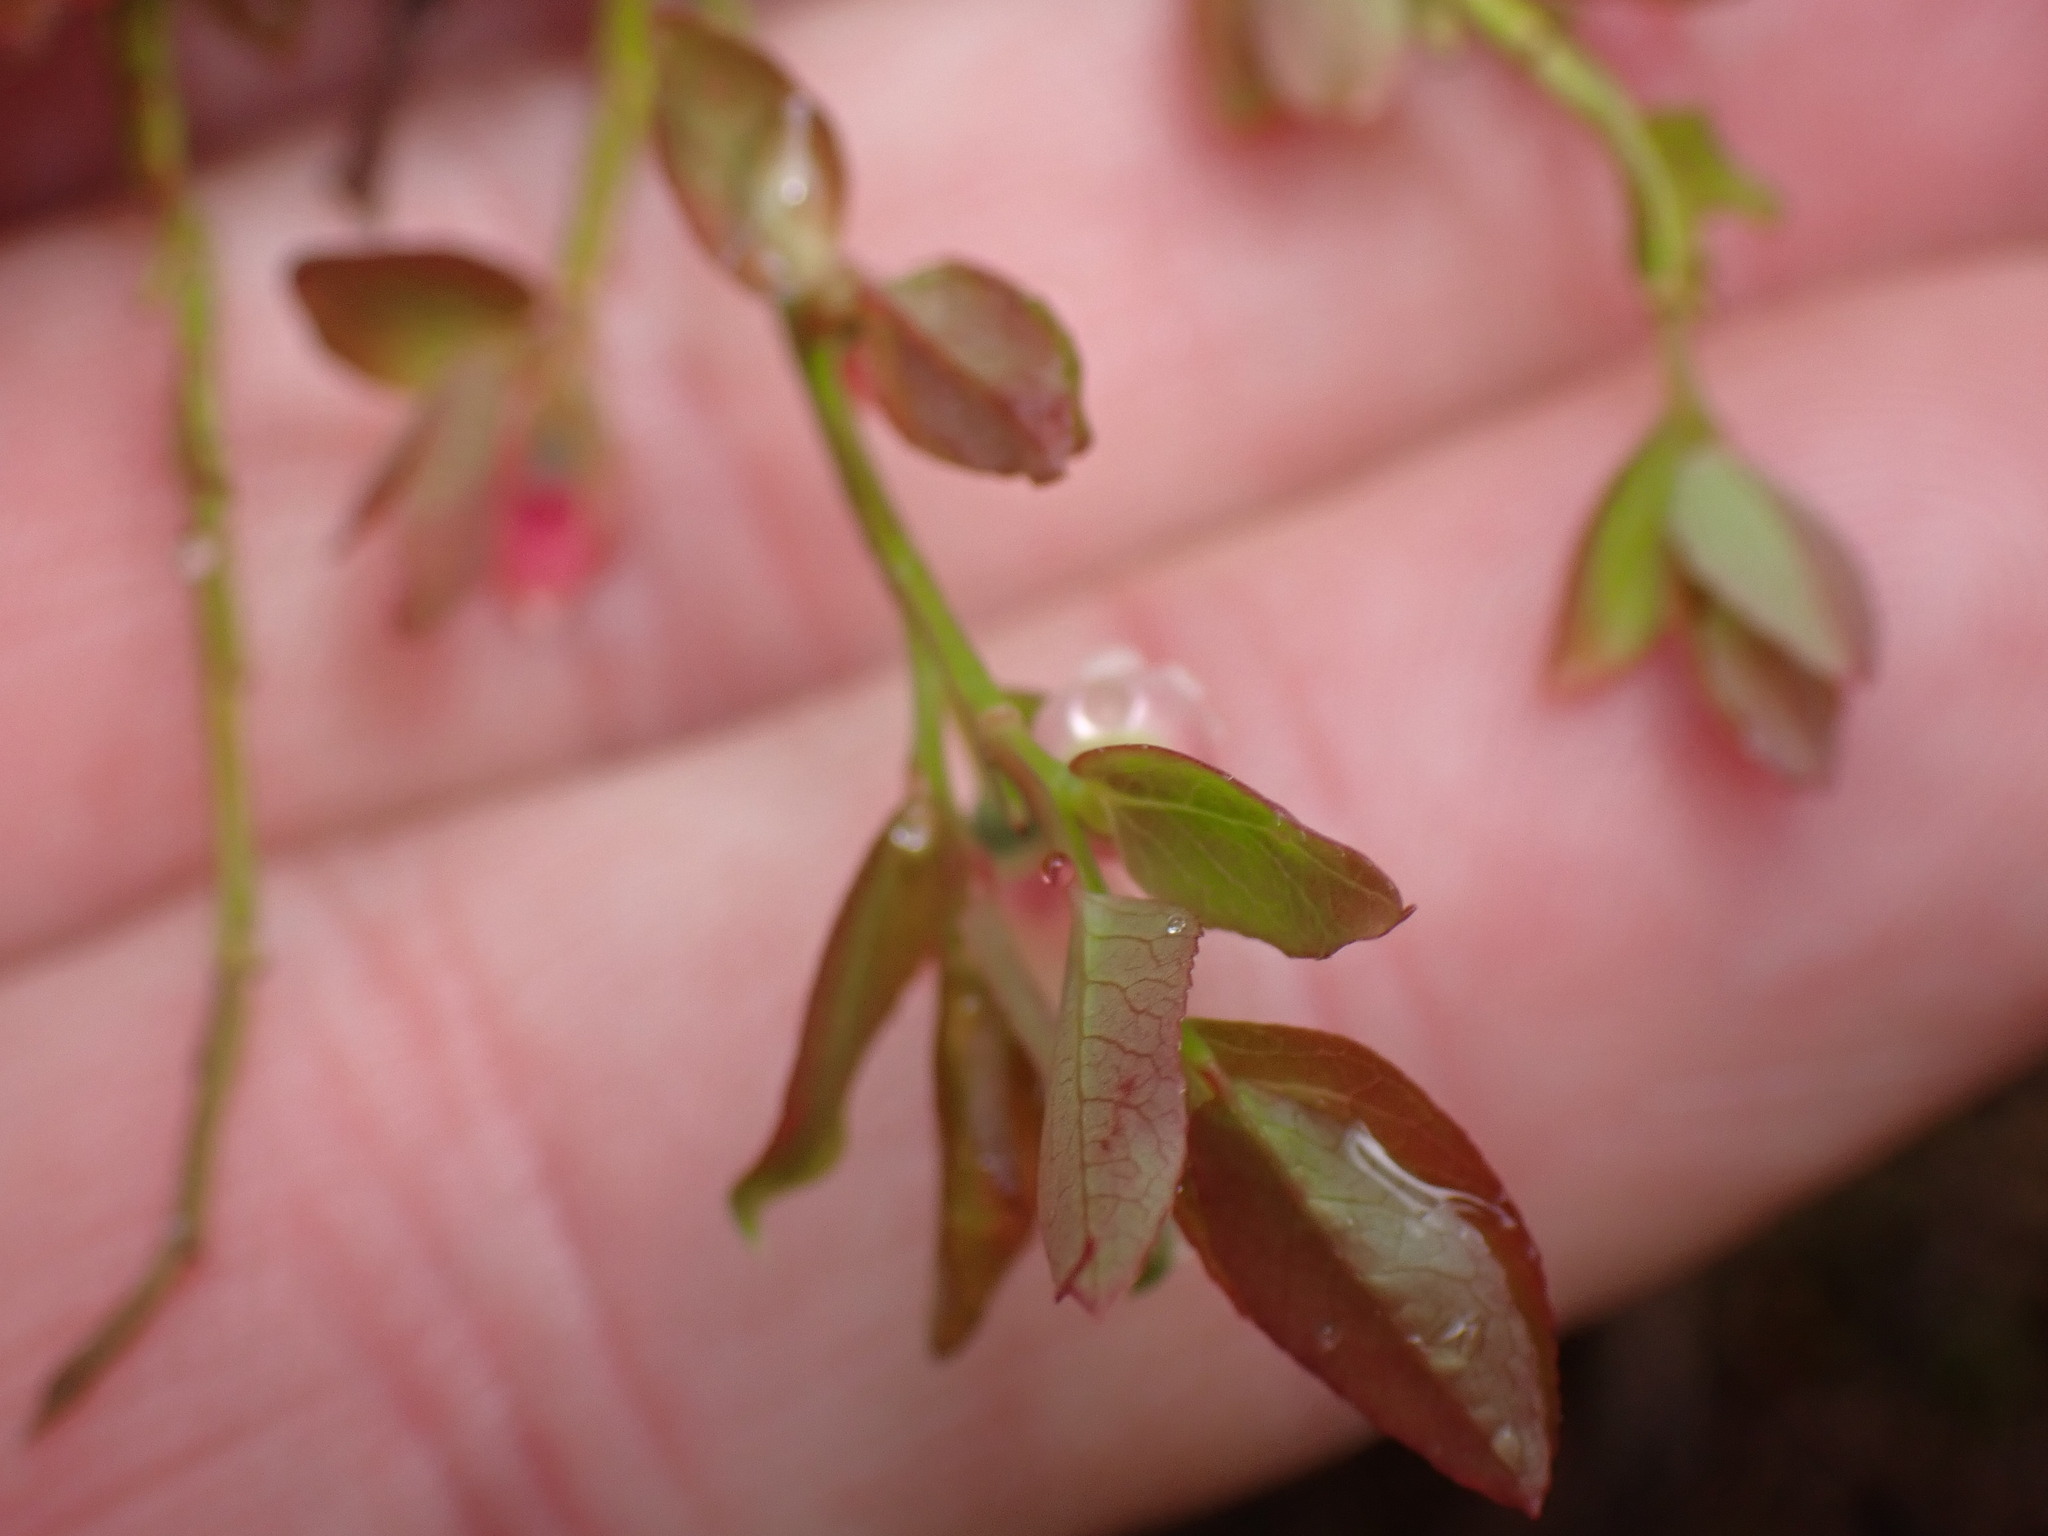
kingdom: Plantae
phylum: Tracheophyta
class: Magnoliopsida
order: Ericales
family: Ericaceae
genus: Vaccinium
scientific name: Vaccinium scoparium
